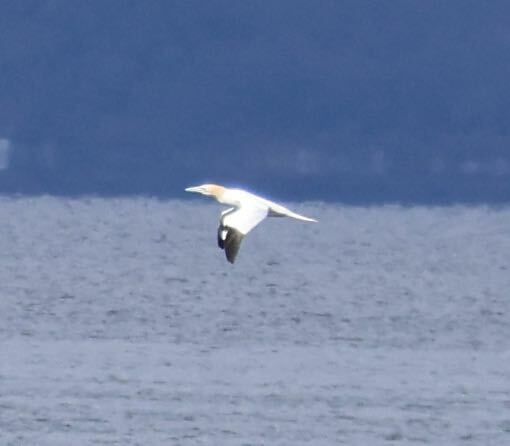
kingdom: Animalia
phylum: Chordata
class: Aves
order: Suliformes
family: Sulidae
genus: Morus
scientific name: Morus bassanus
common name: Northern gannet
